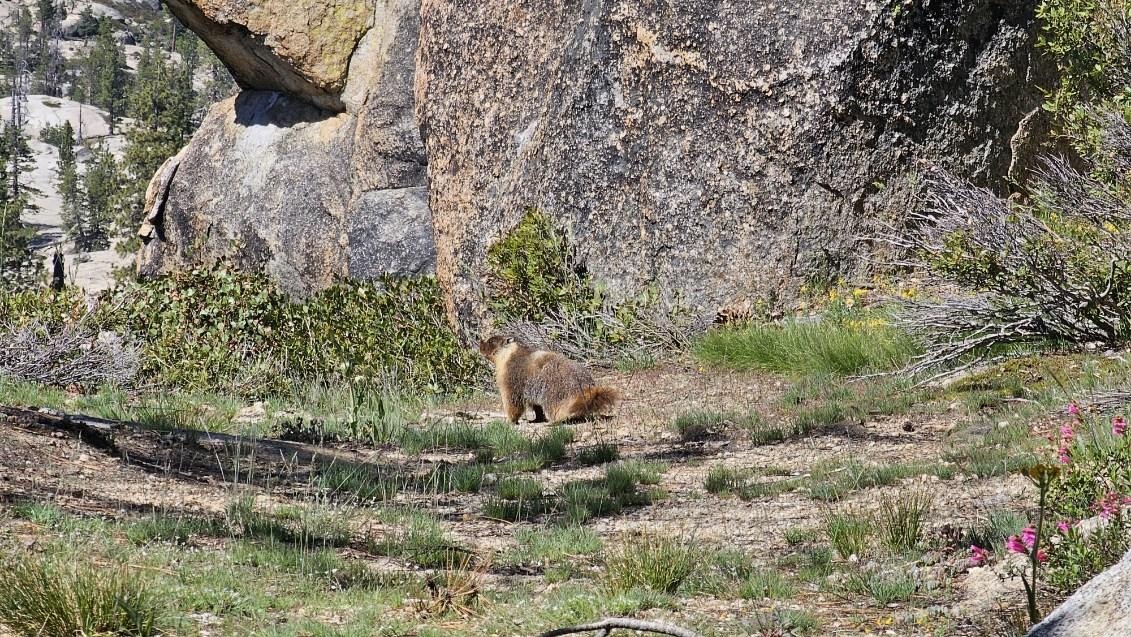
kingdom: Animalia
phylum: Chordata
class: Mammalia
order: Rodentia
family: Sciuridae
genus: Marmota
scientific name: Marmota flaviventris
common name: Yellow-bellied marmot
